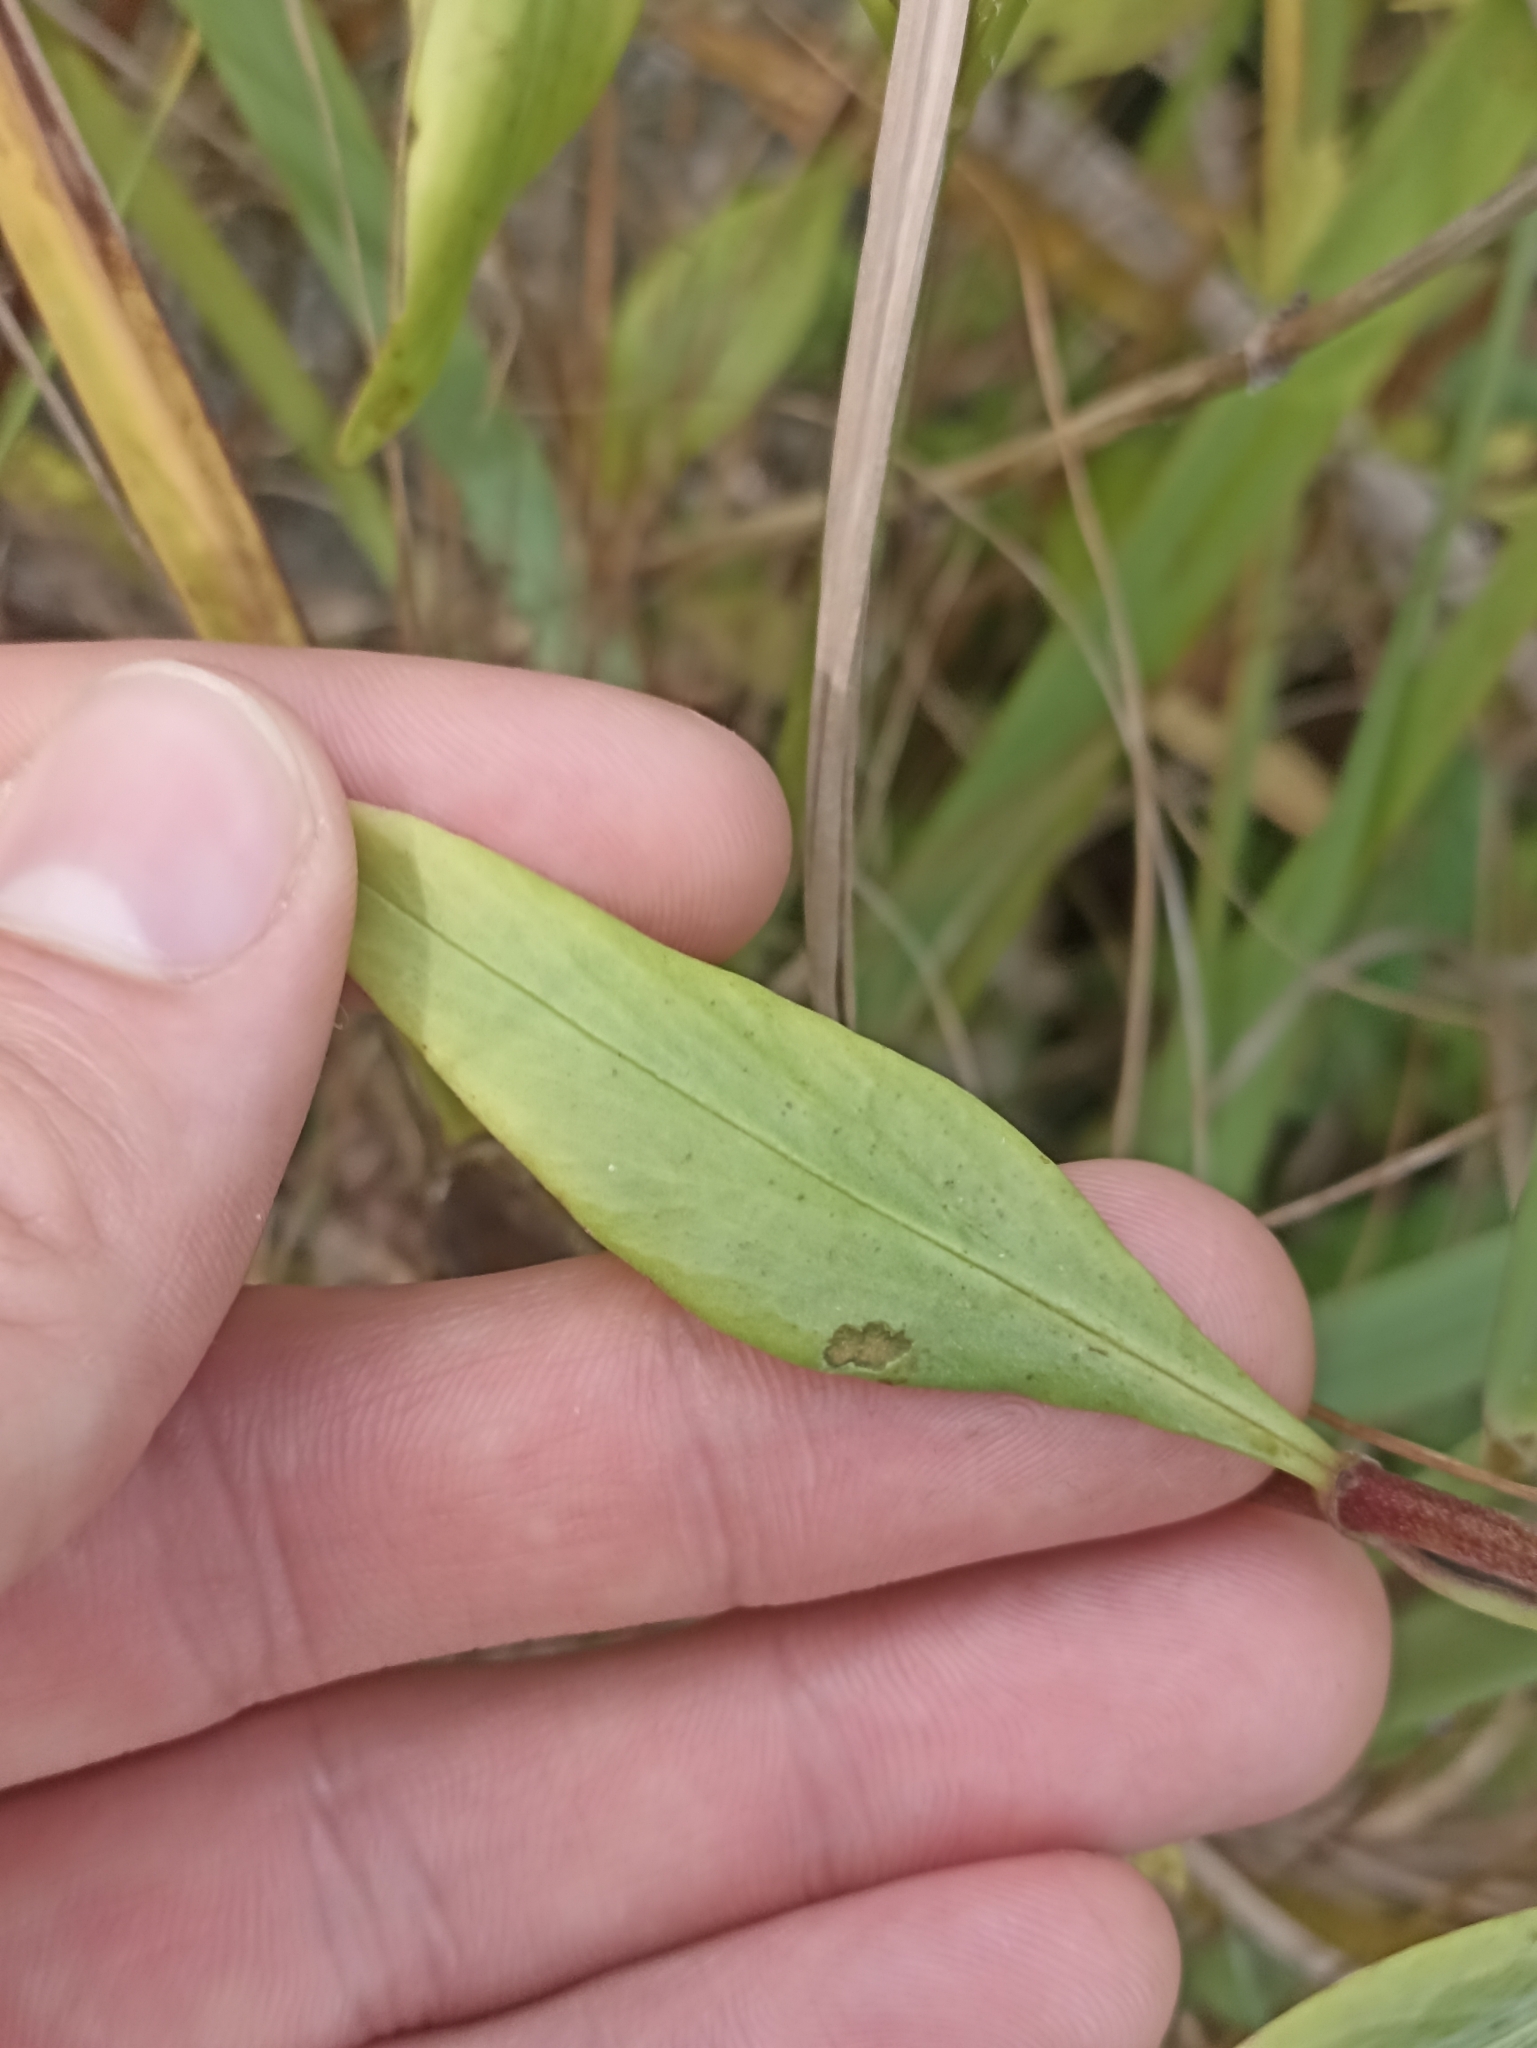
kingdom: Plantae
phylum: Tracheophyta
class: Magnoliopsida
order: Dipsacales
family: Caprifoliaceae
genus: Centranthus
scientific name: Centranthus ruber
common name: Red valerian
